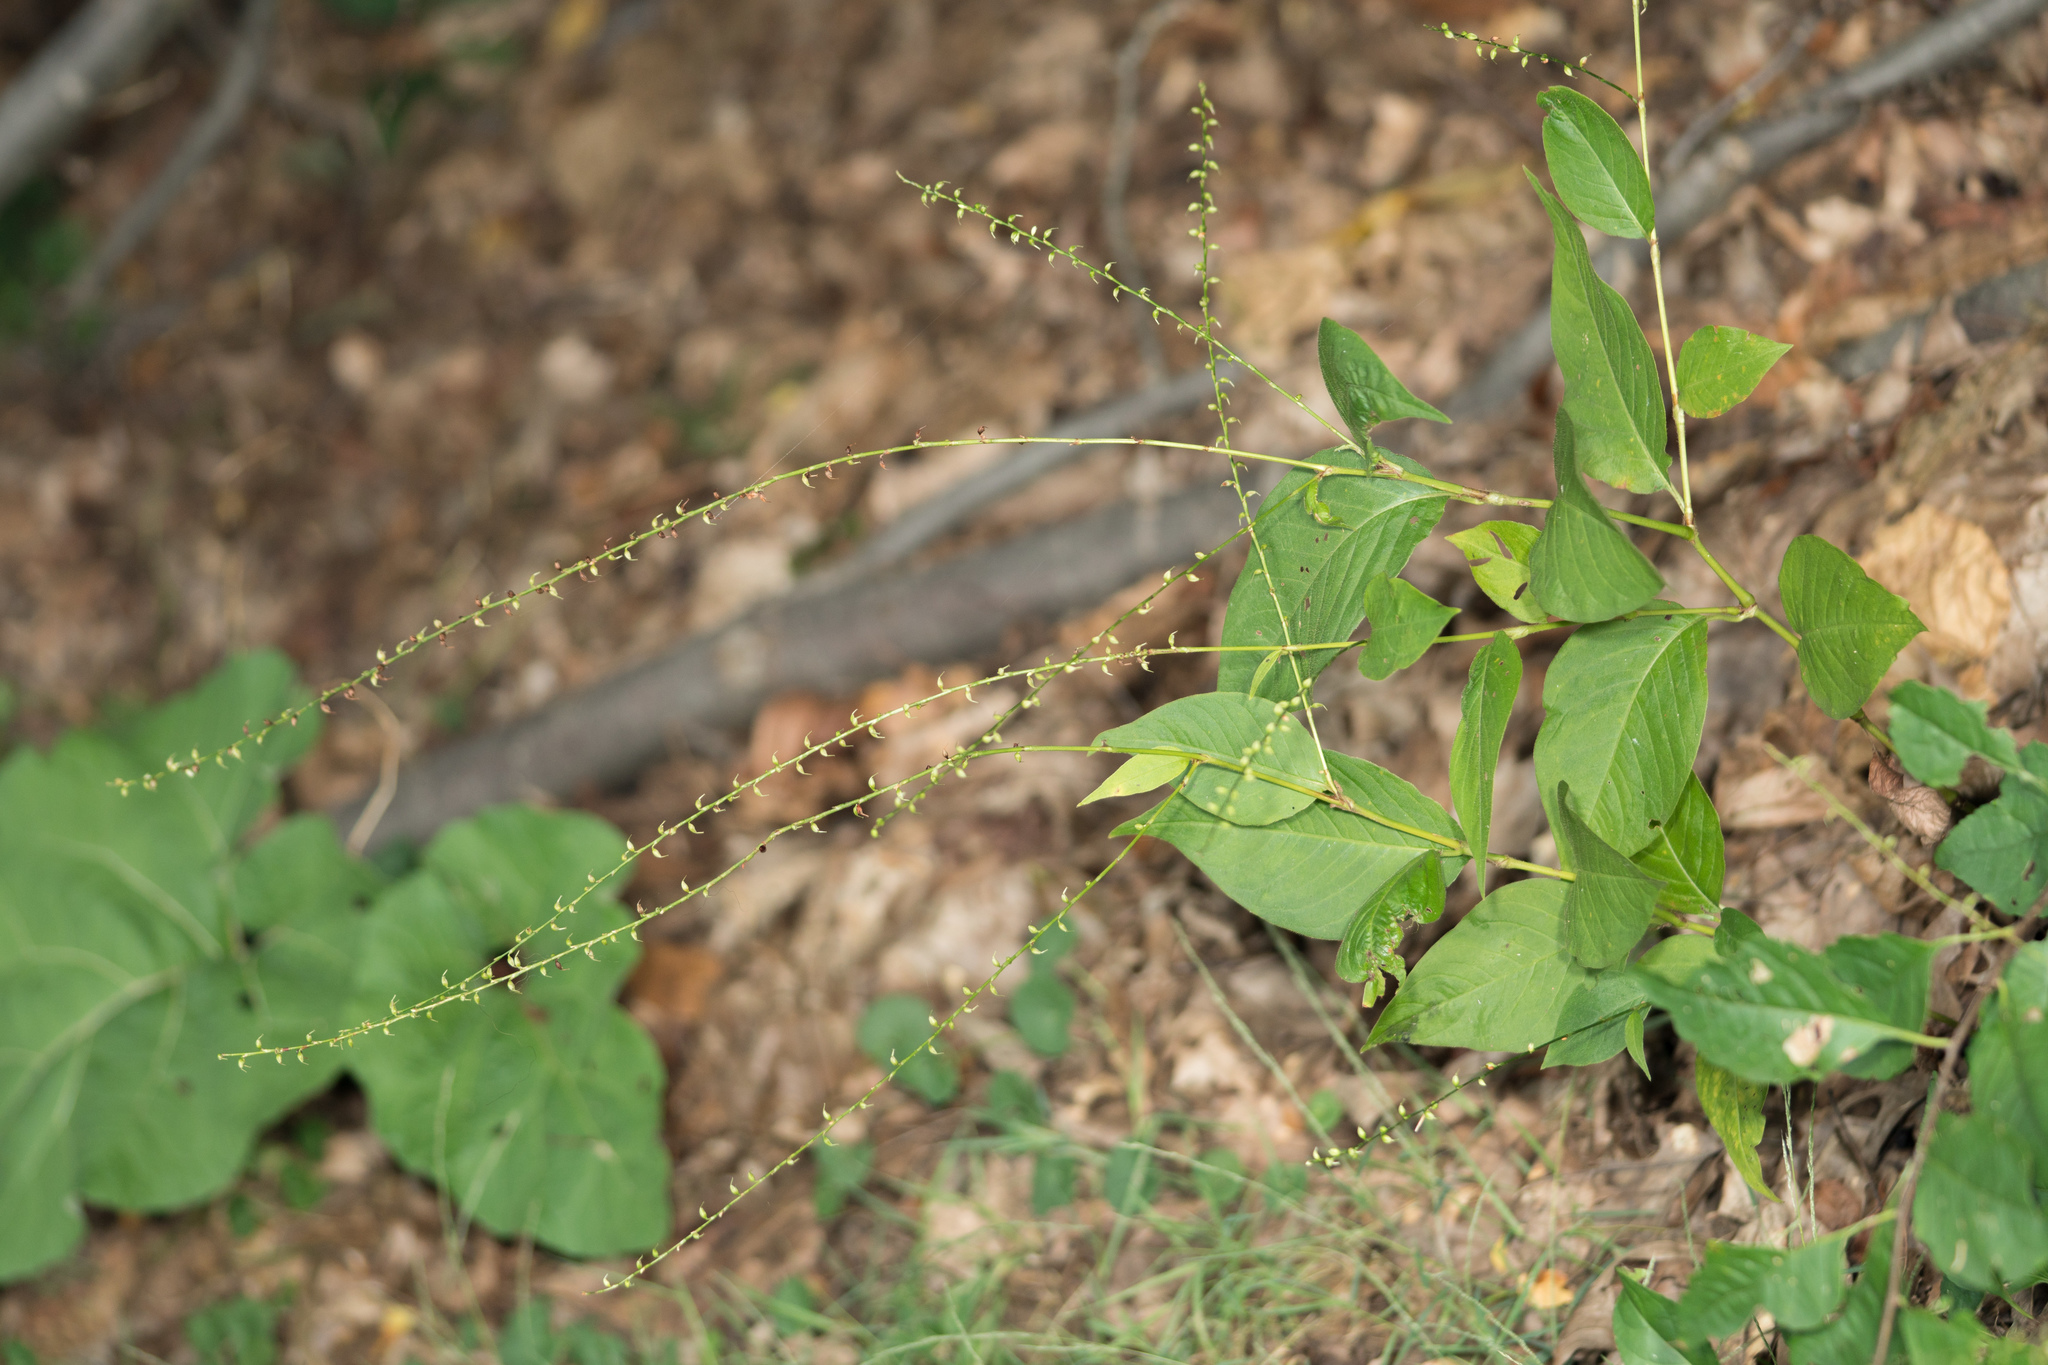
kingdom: Plantae
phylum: Tracheophyta
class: Magnoliopsida
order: Caryophyllales
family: Polygonaceae
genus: Persicaria
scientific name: Persicaria virginiana
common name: Jumpseed
